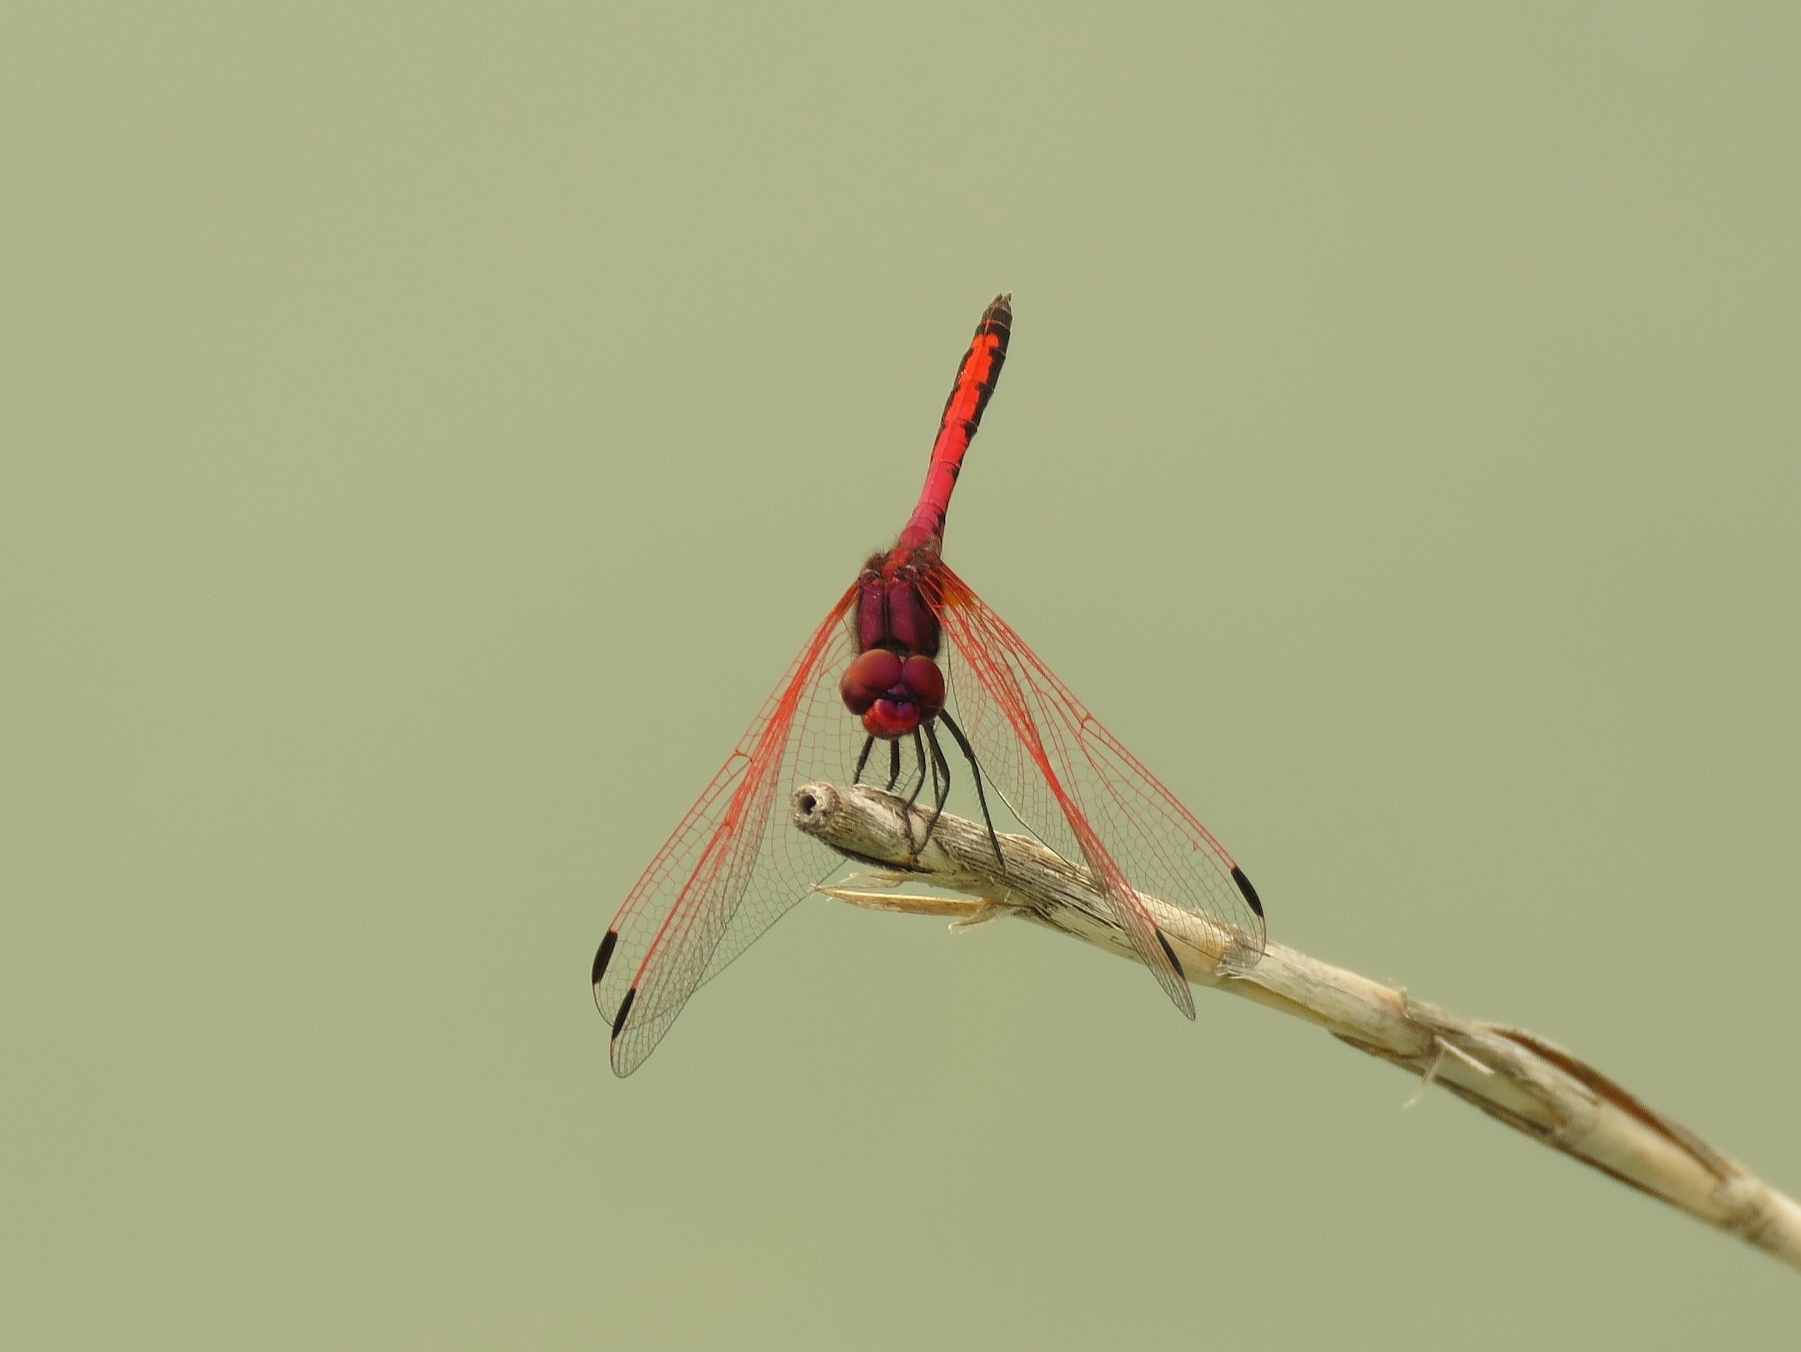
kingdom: Animalia
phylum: Arthropoda
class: Insecta
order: Odonata
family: Libellulidae
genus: Trithemis
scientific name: Trithemis arteriosa
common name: Red-veined dropwing
